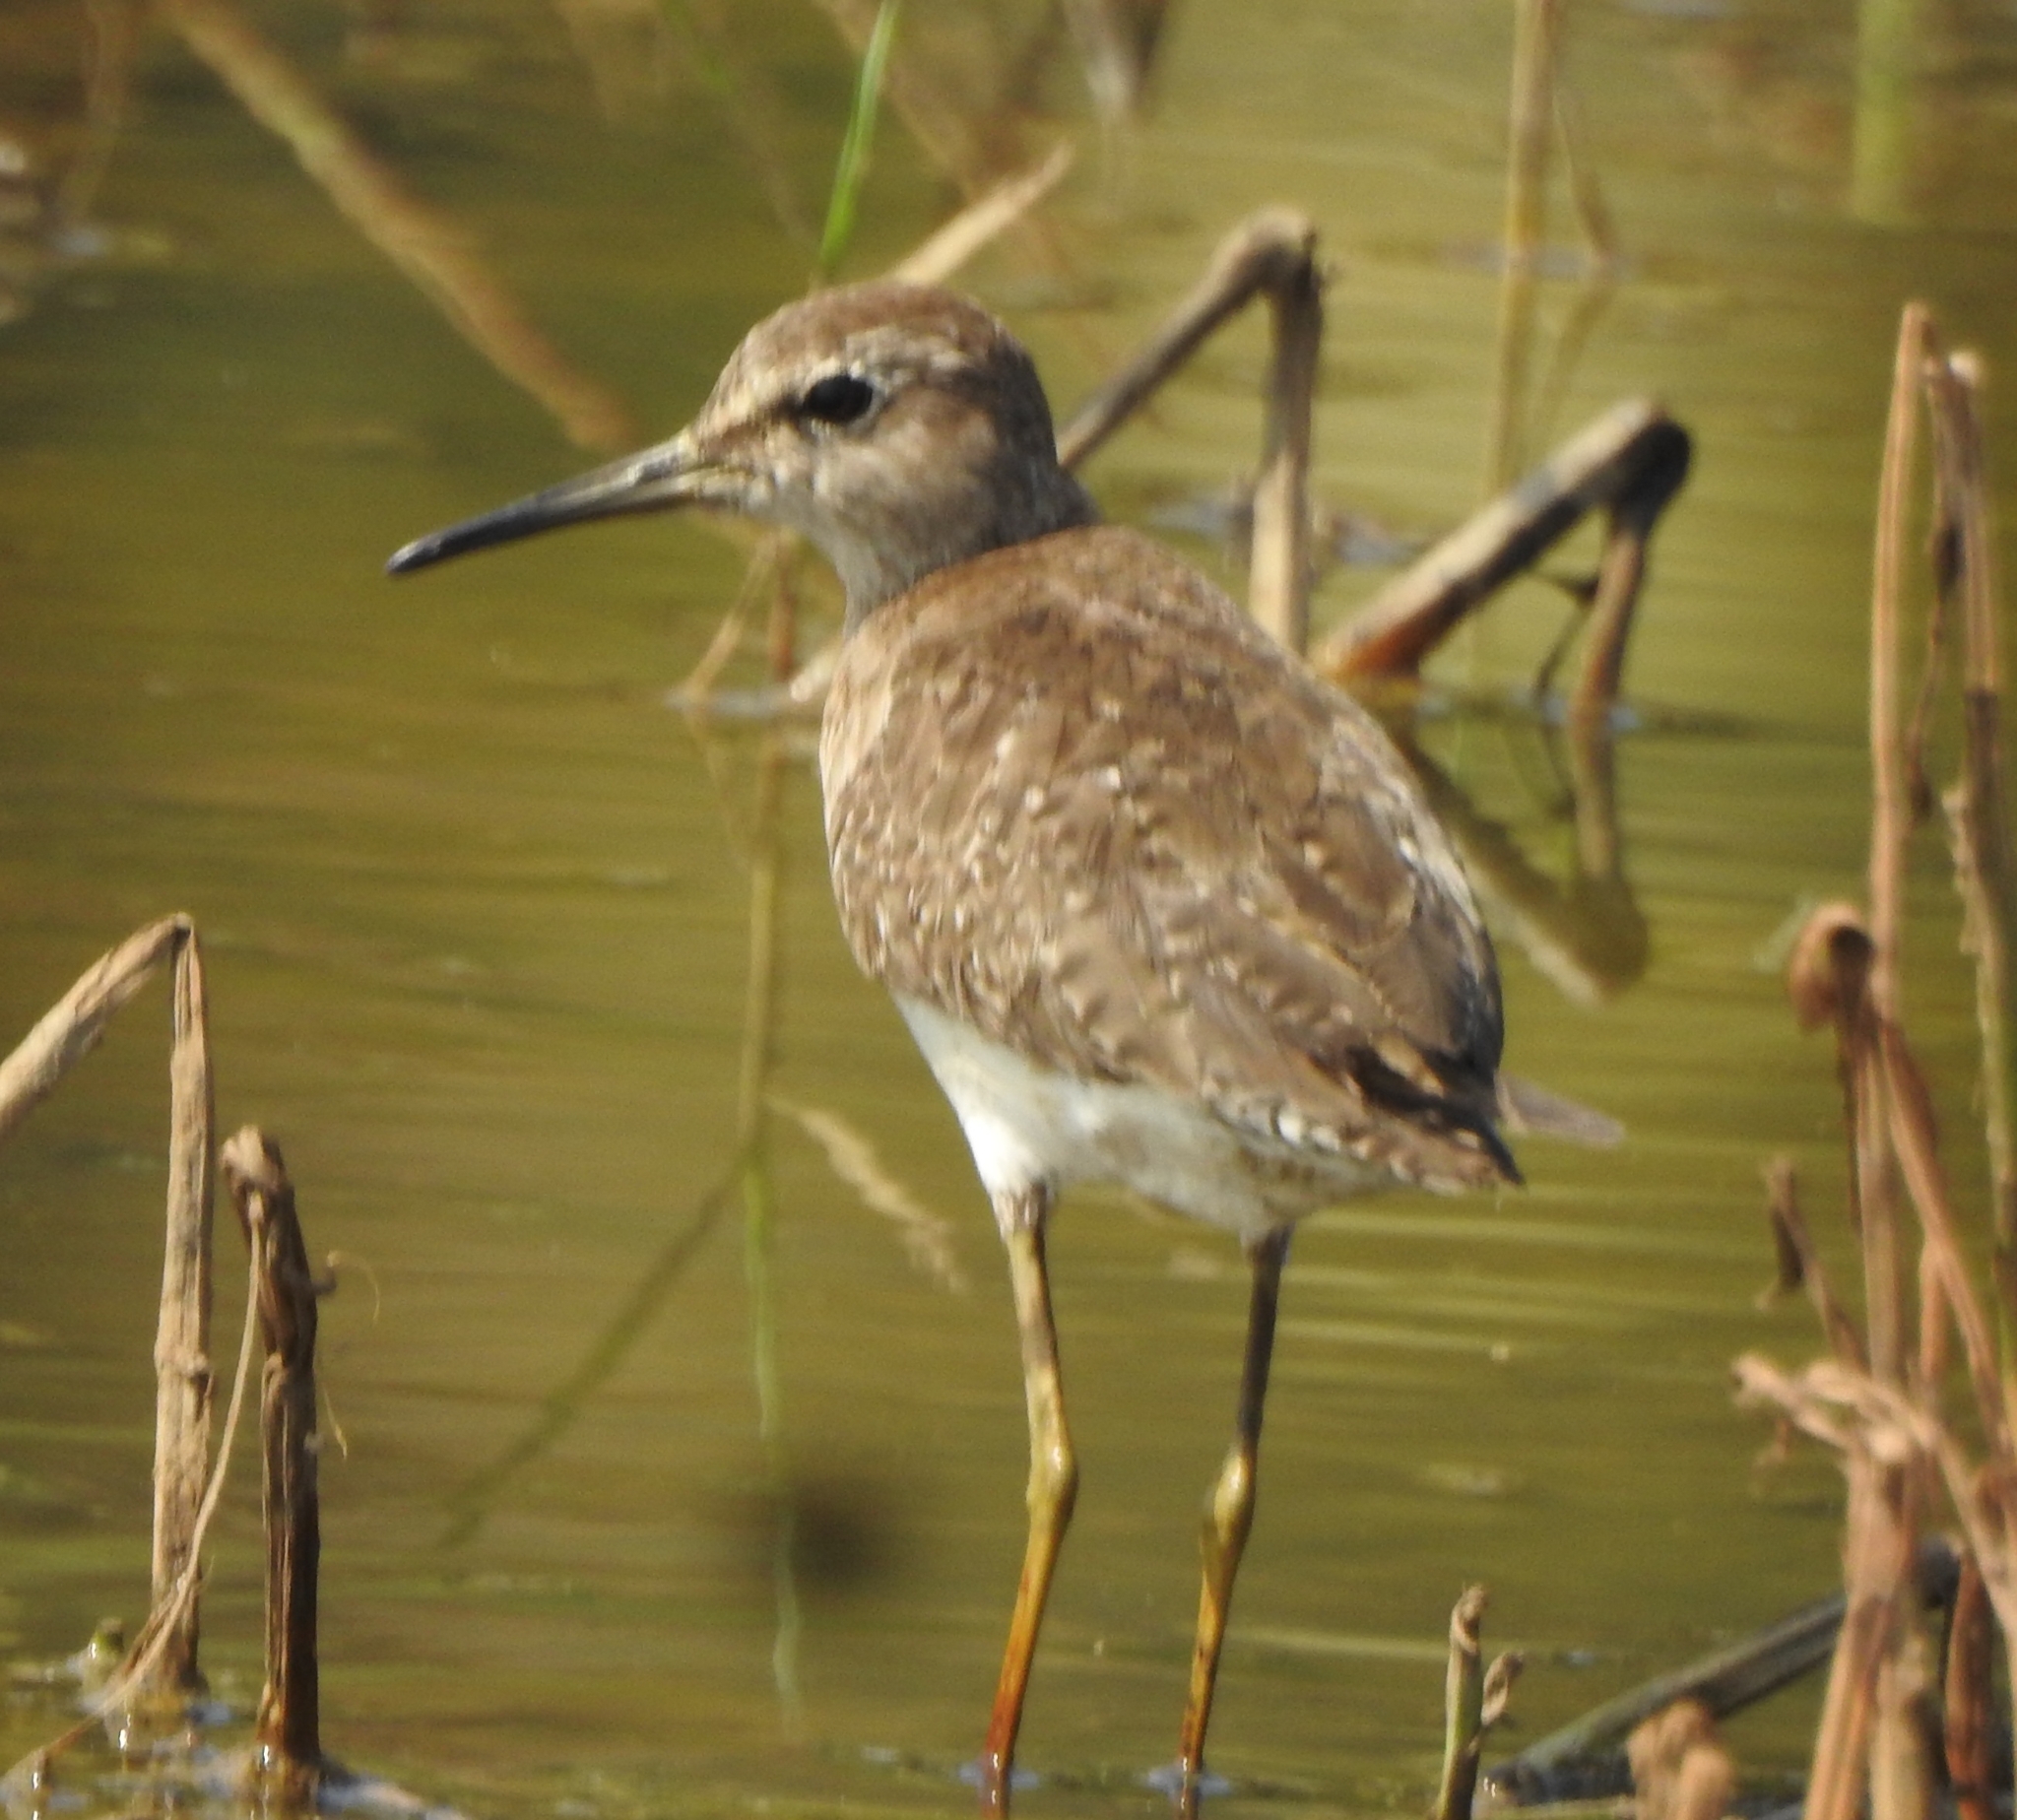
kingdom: Animalia
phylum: Chordata
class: Aves
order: Charadriiformes
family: Scolopacidae
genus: Tringa
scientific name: Tringa glareola
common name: Wood sandpiper
